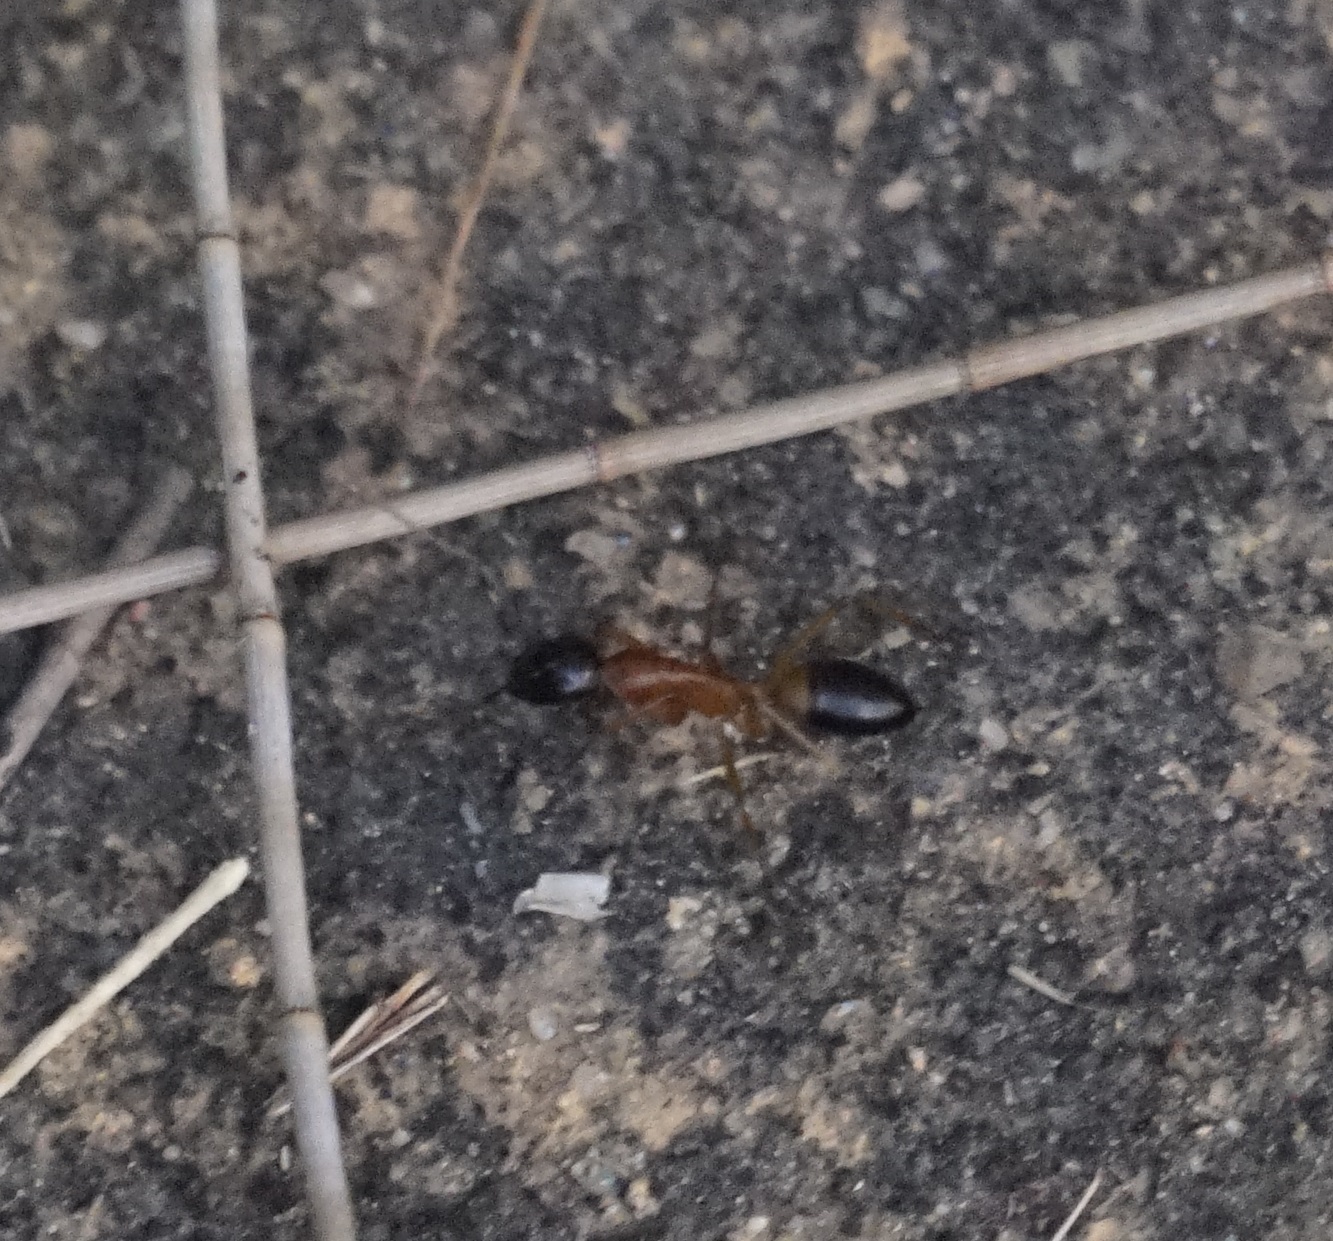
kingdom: Animalia
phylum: Arthropoda
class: Insecta
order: Hymenoptera
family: Formicidae
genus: Camponotus
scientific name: Camponotus consobrinus
